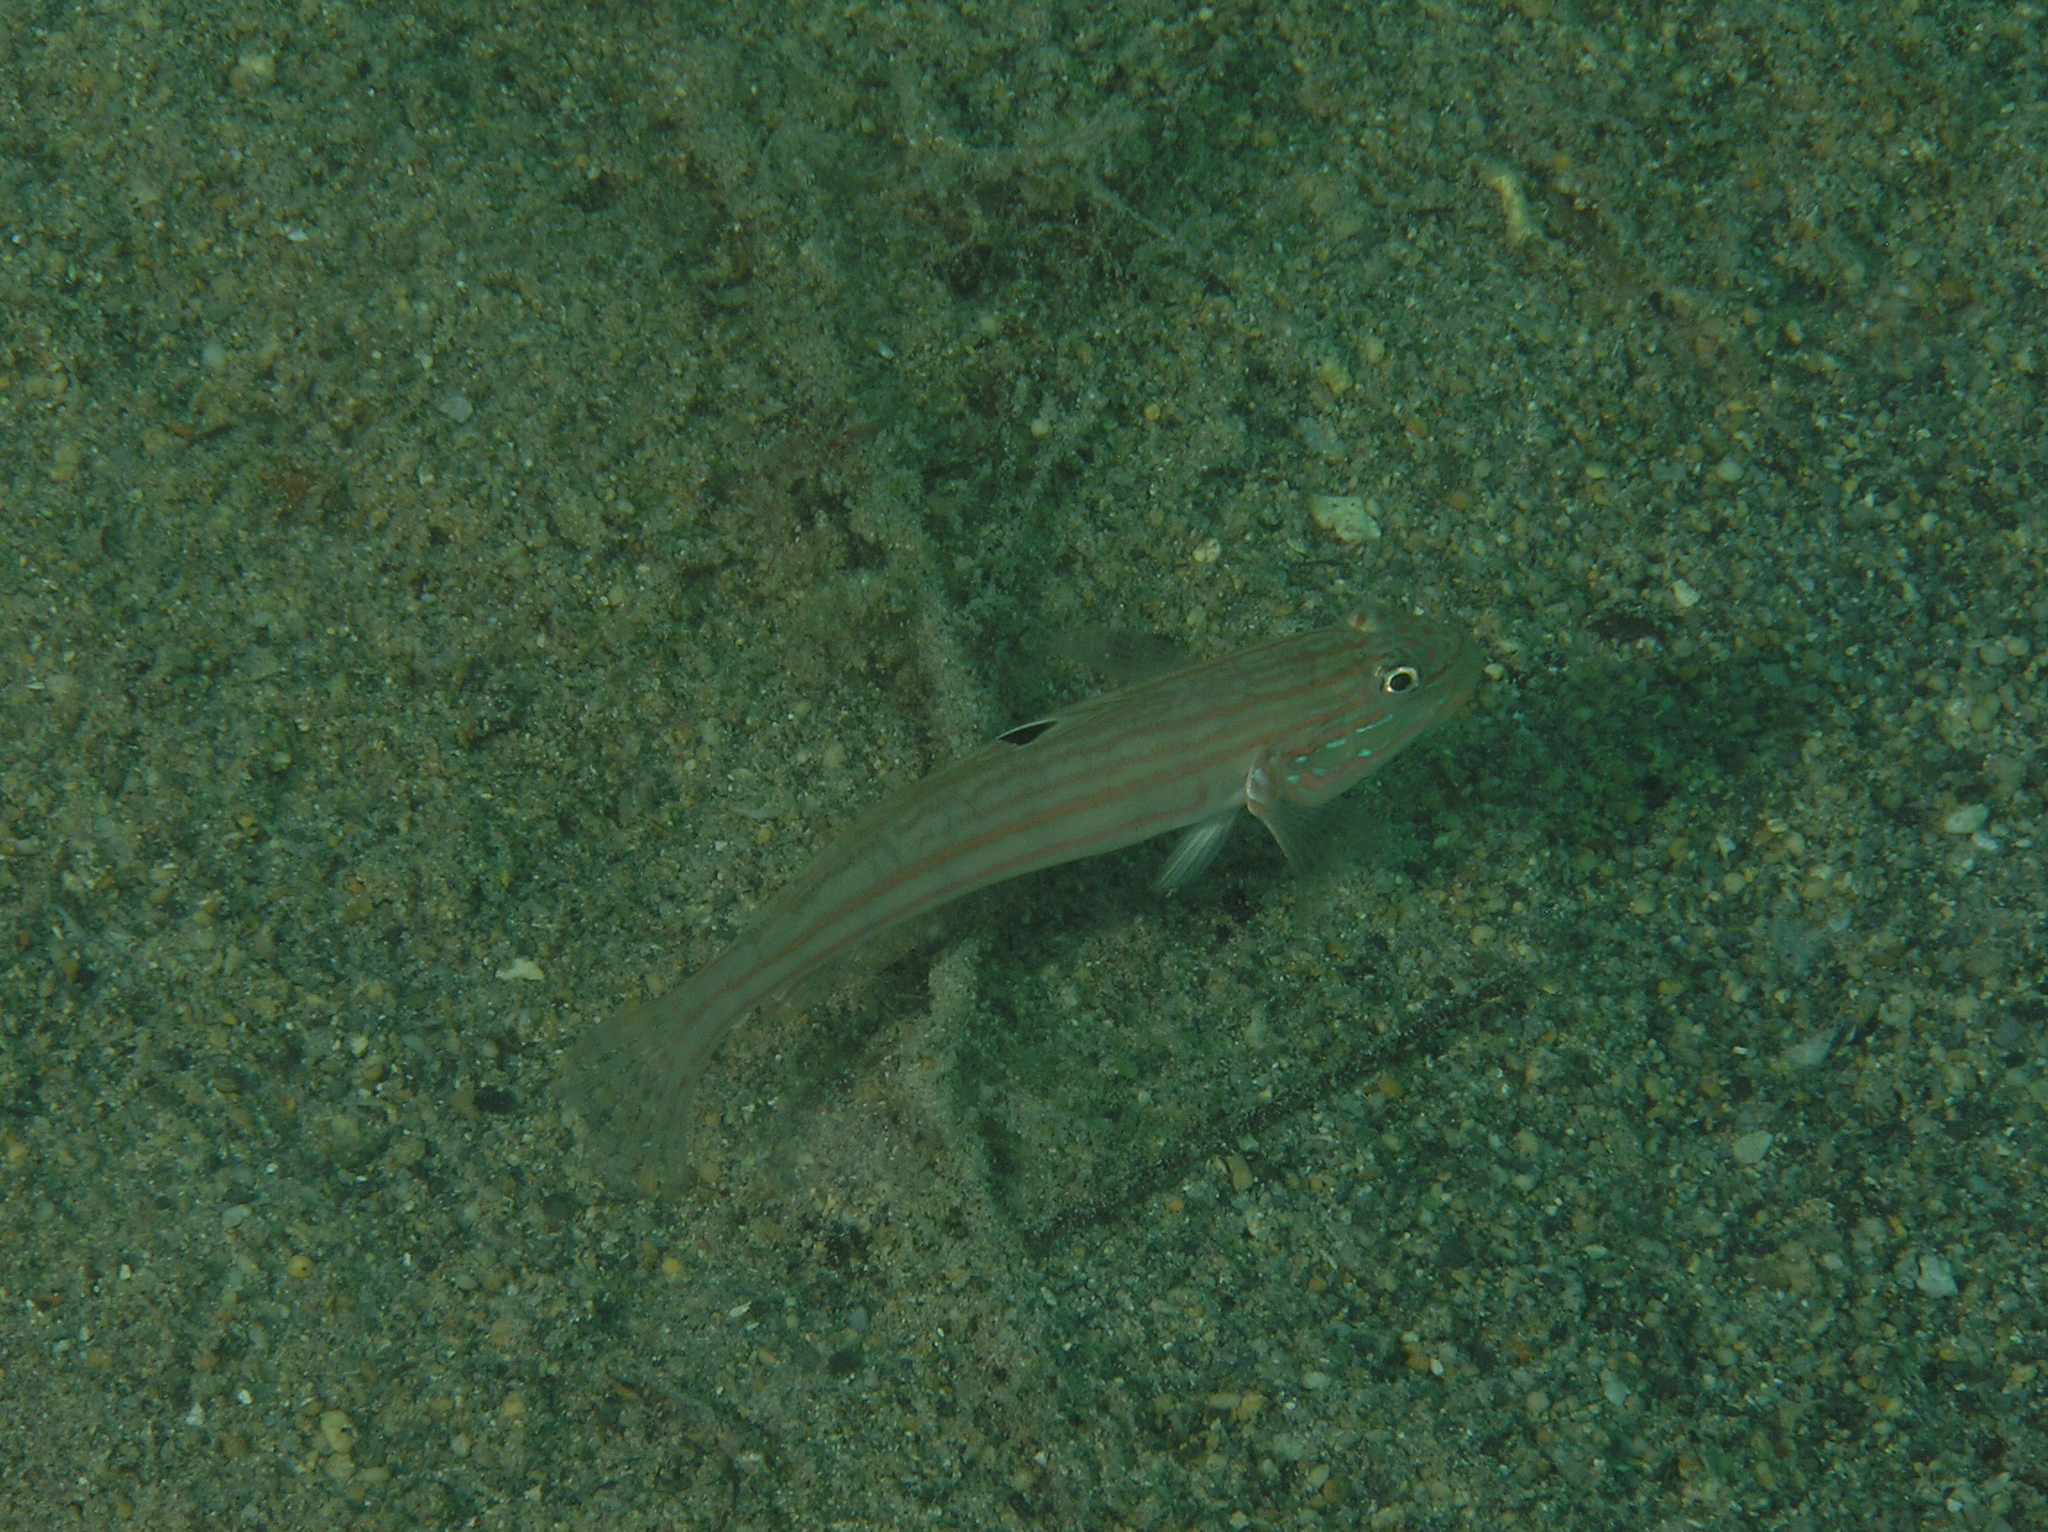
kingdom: Animalia
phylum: Chordata
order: Perciformes
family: Gobiidae
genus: Valenciennea
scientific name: Valenciennea muralis
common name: Mural goby
